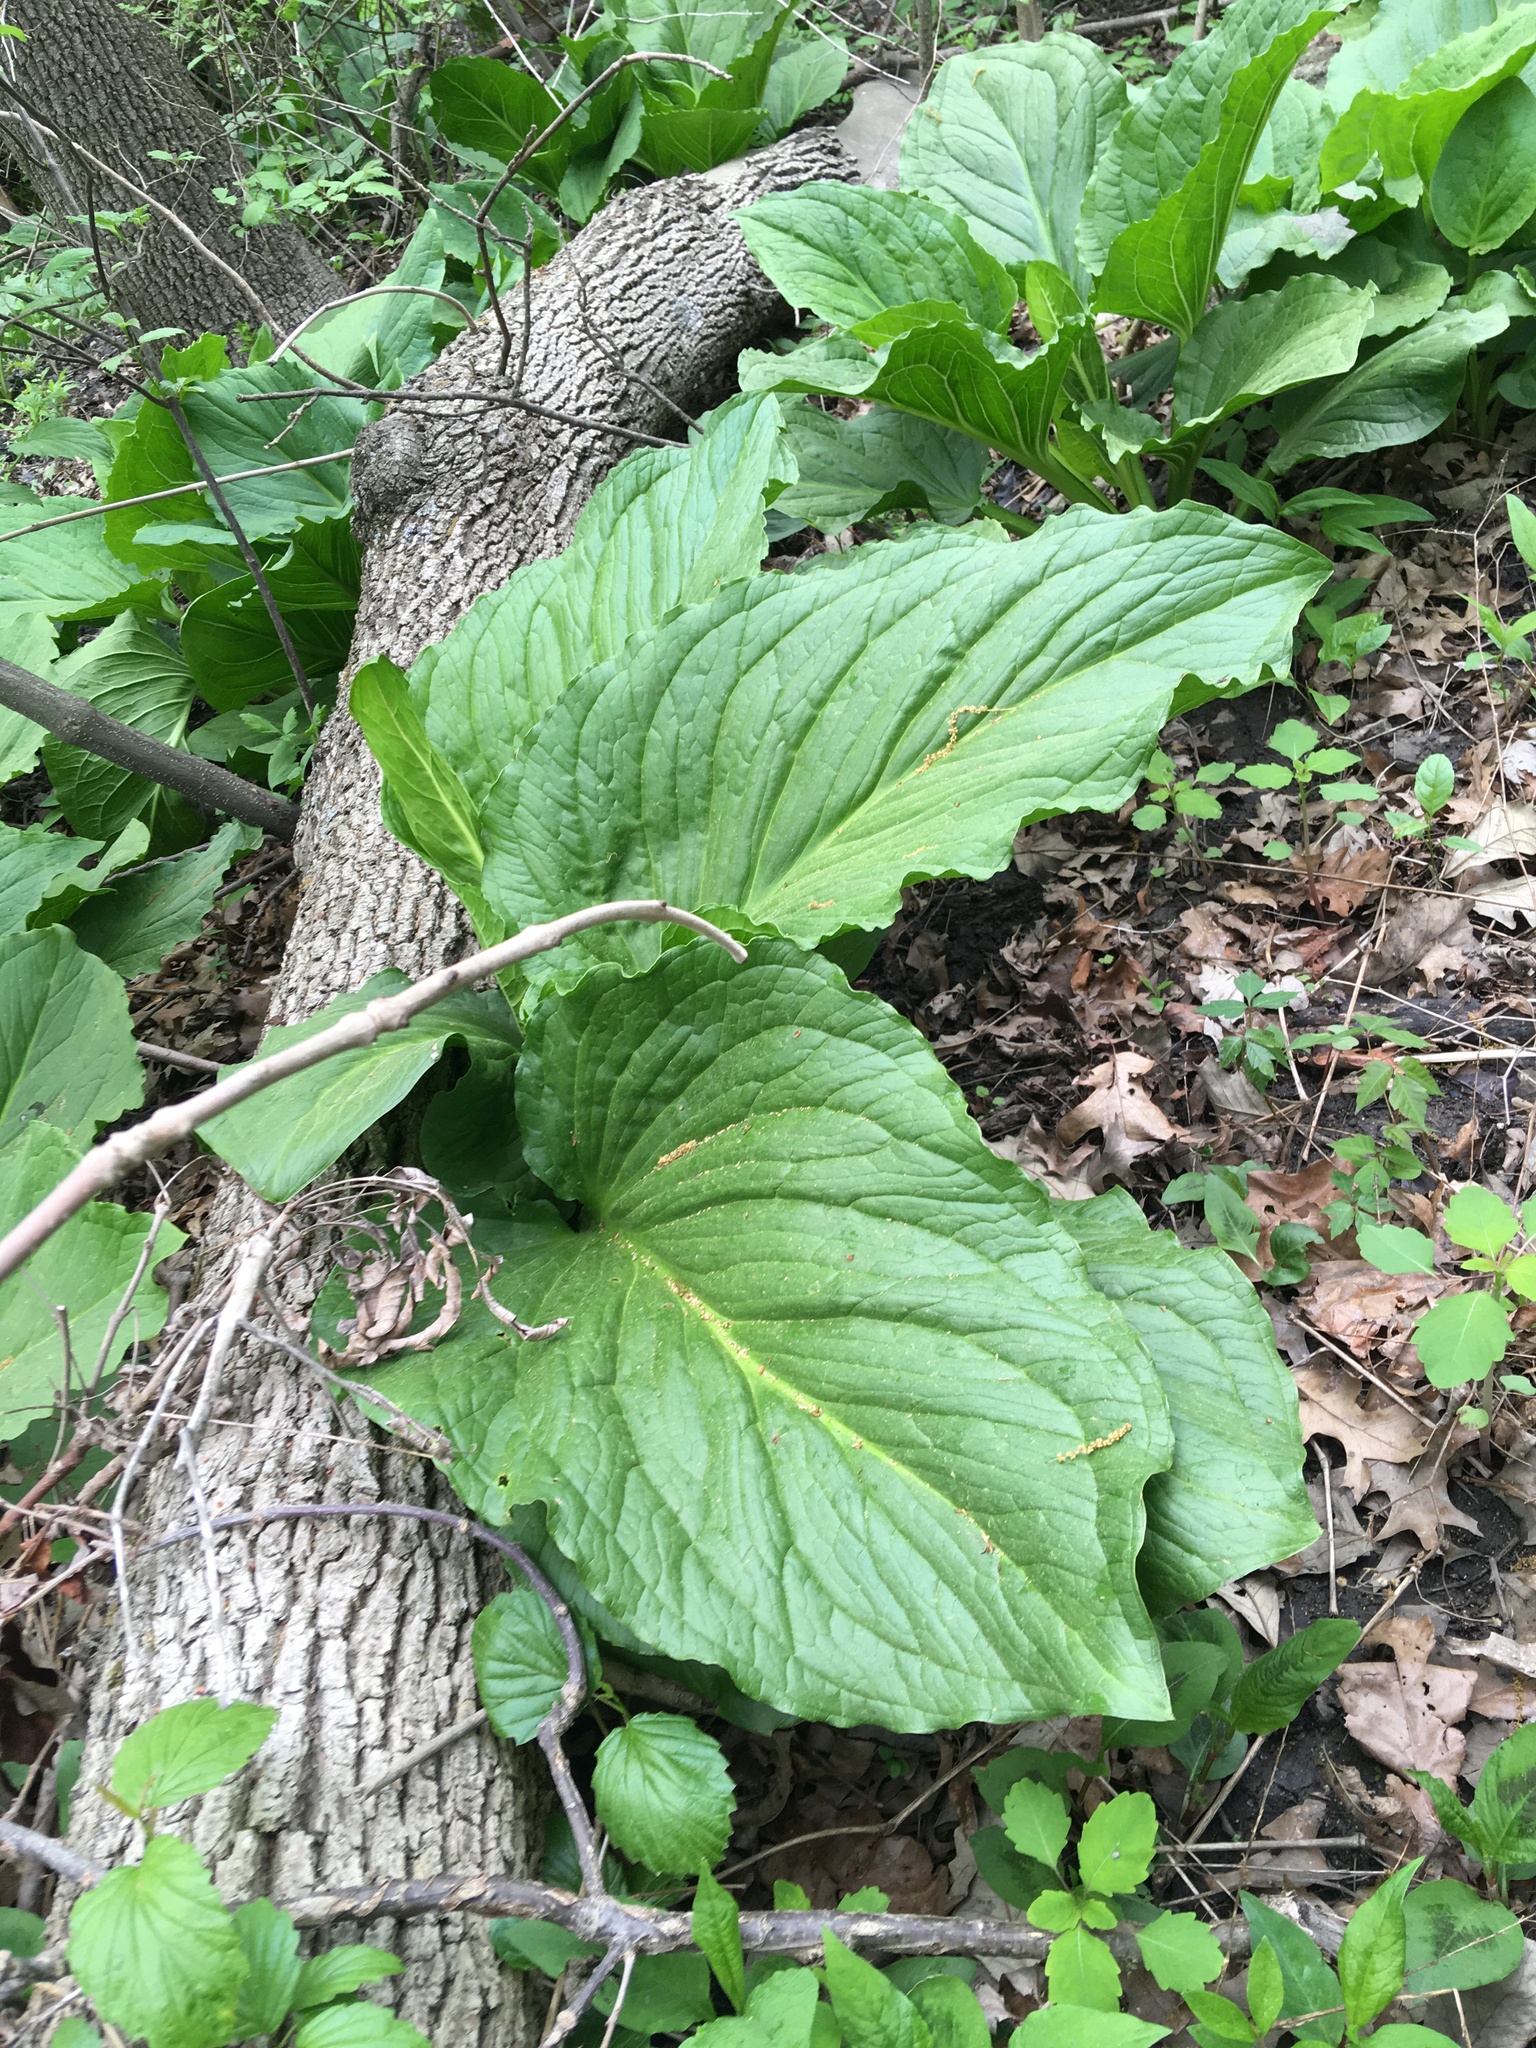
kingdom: Plantae
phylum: Tracheophyta
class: Liliopsida
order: Alismatales
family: Araceae
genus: Symplocarpus
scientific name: Symplocarpus foetidus
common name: Eastern skunk cabbage
